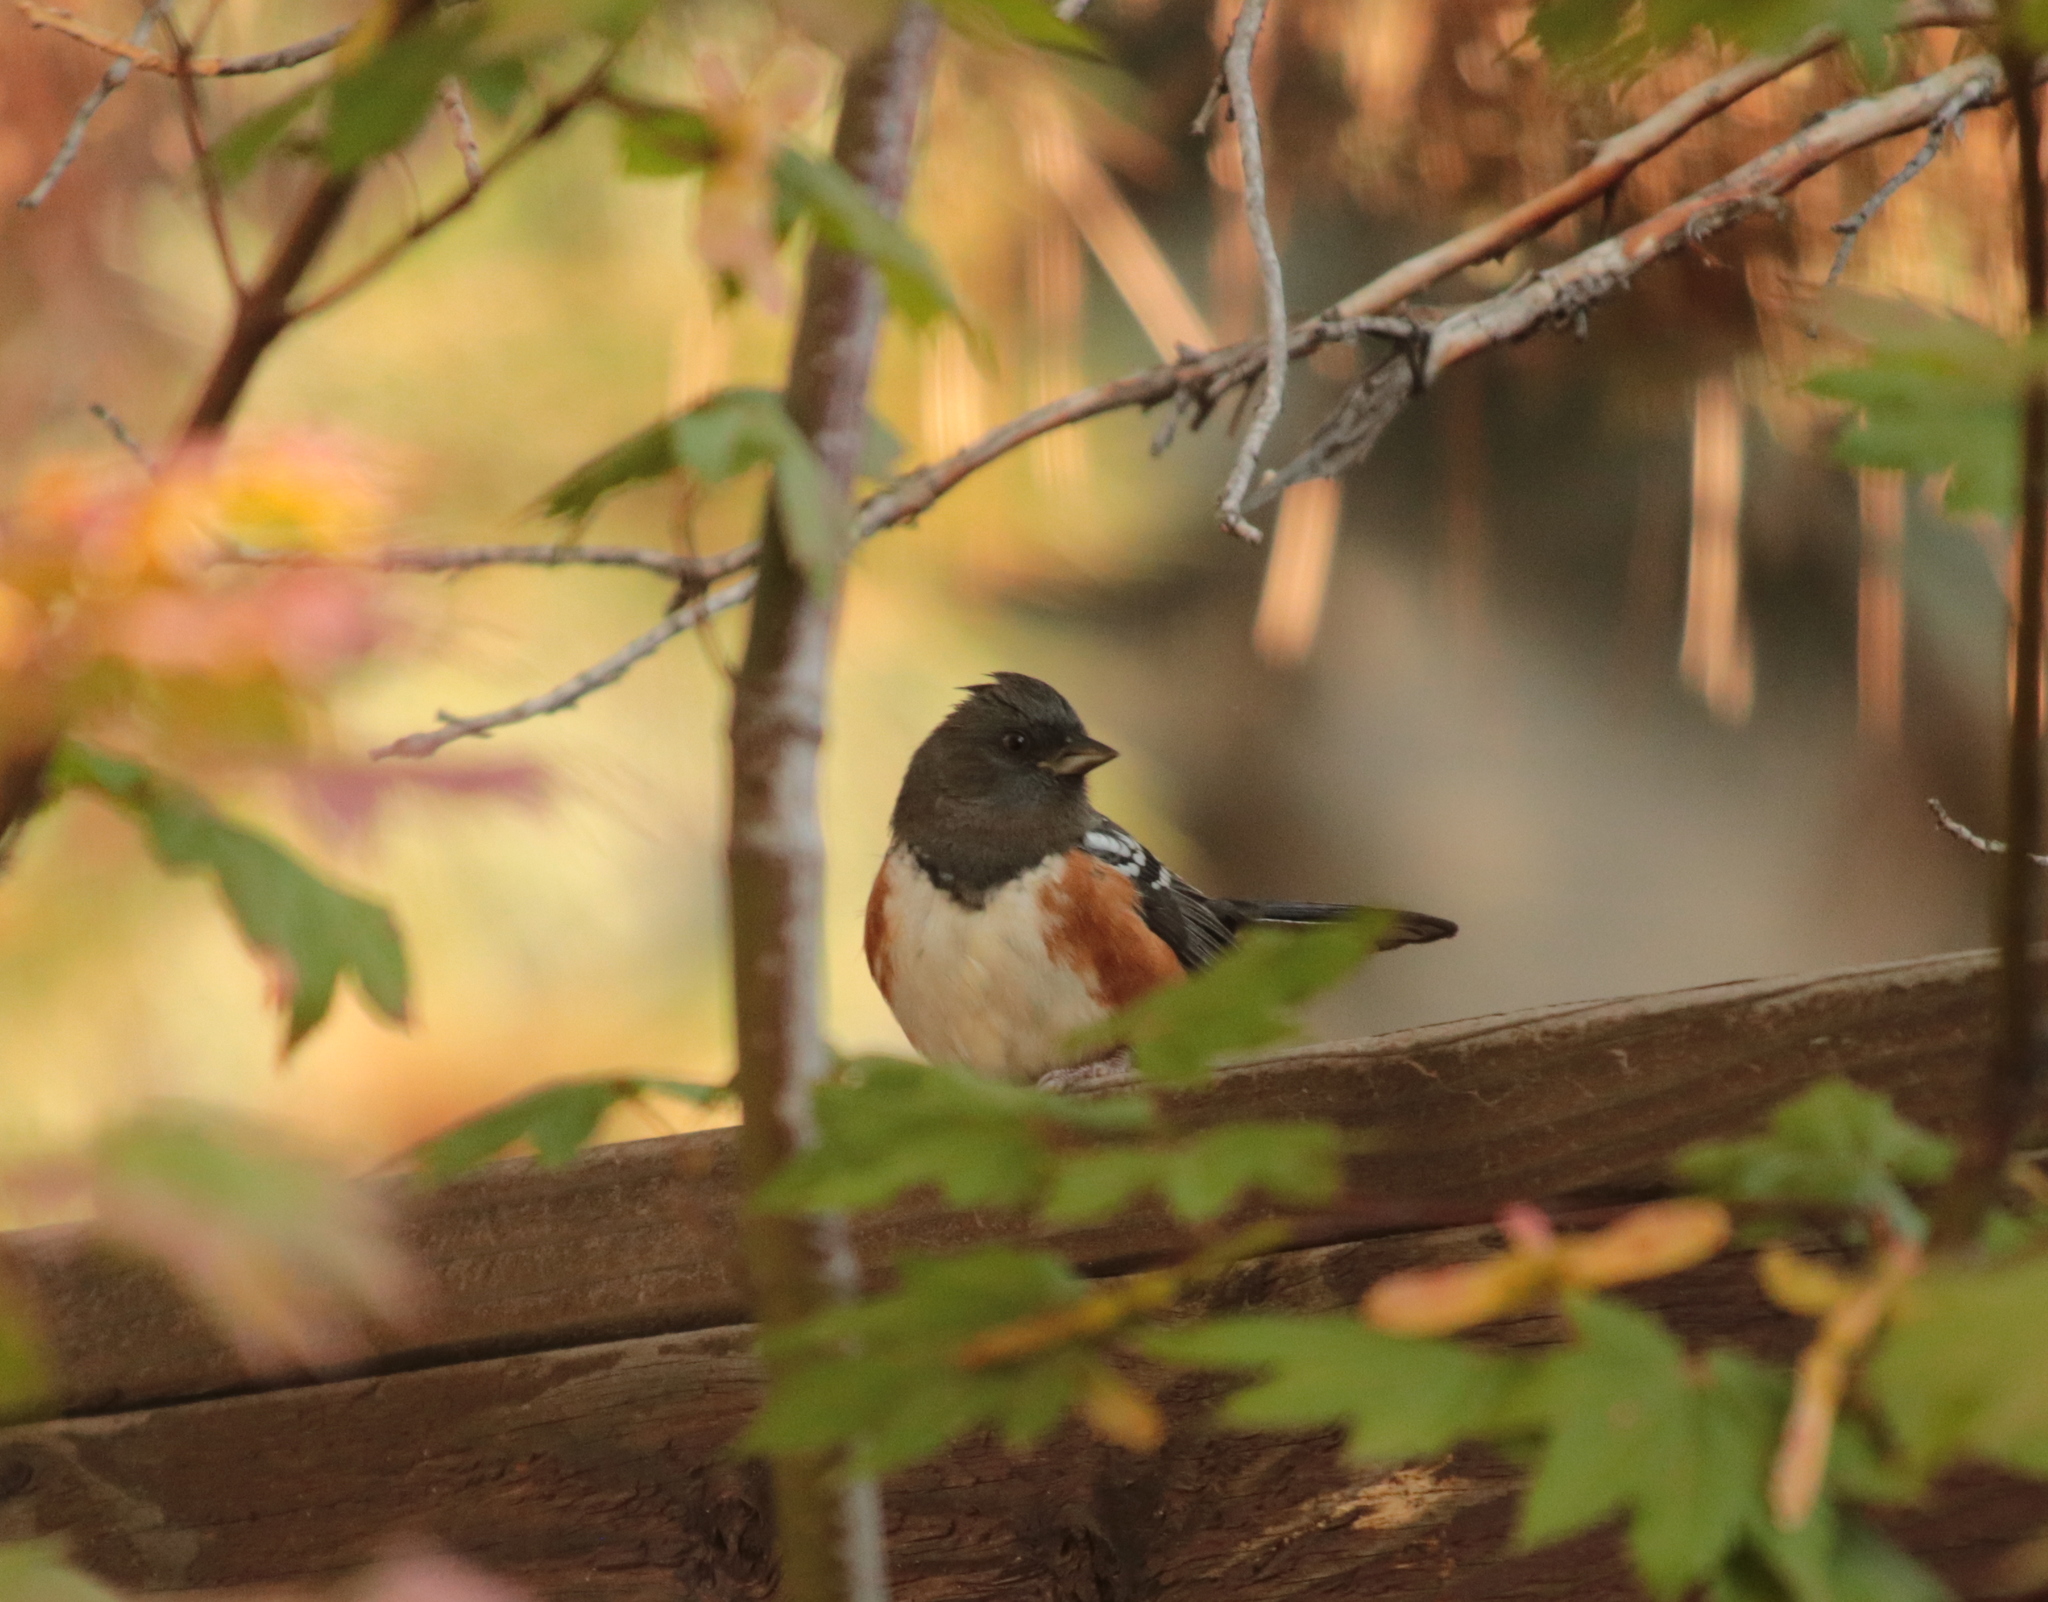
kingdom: Animalia
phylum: Chordata
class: Aves
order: Passeriformes
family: Passerellidae
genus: Pipilo
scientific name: Pipilo maculatus
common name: Spotted towhee
